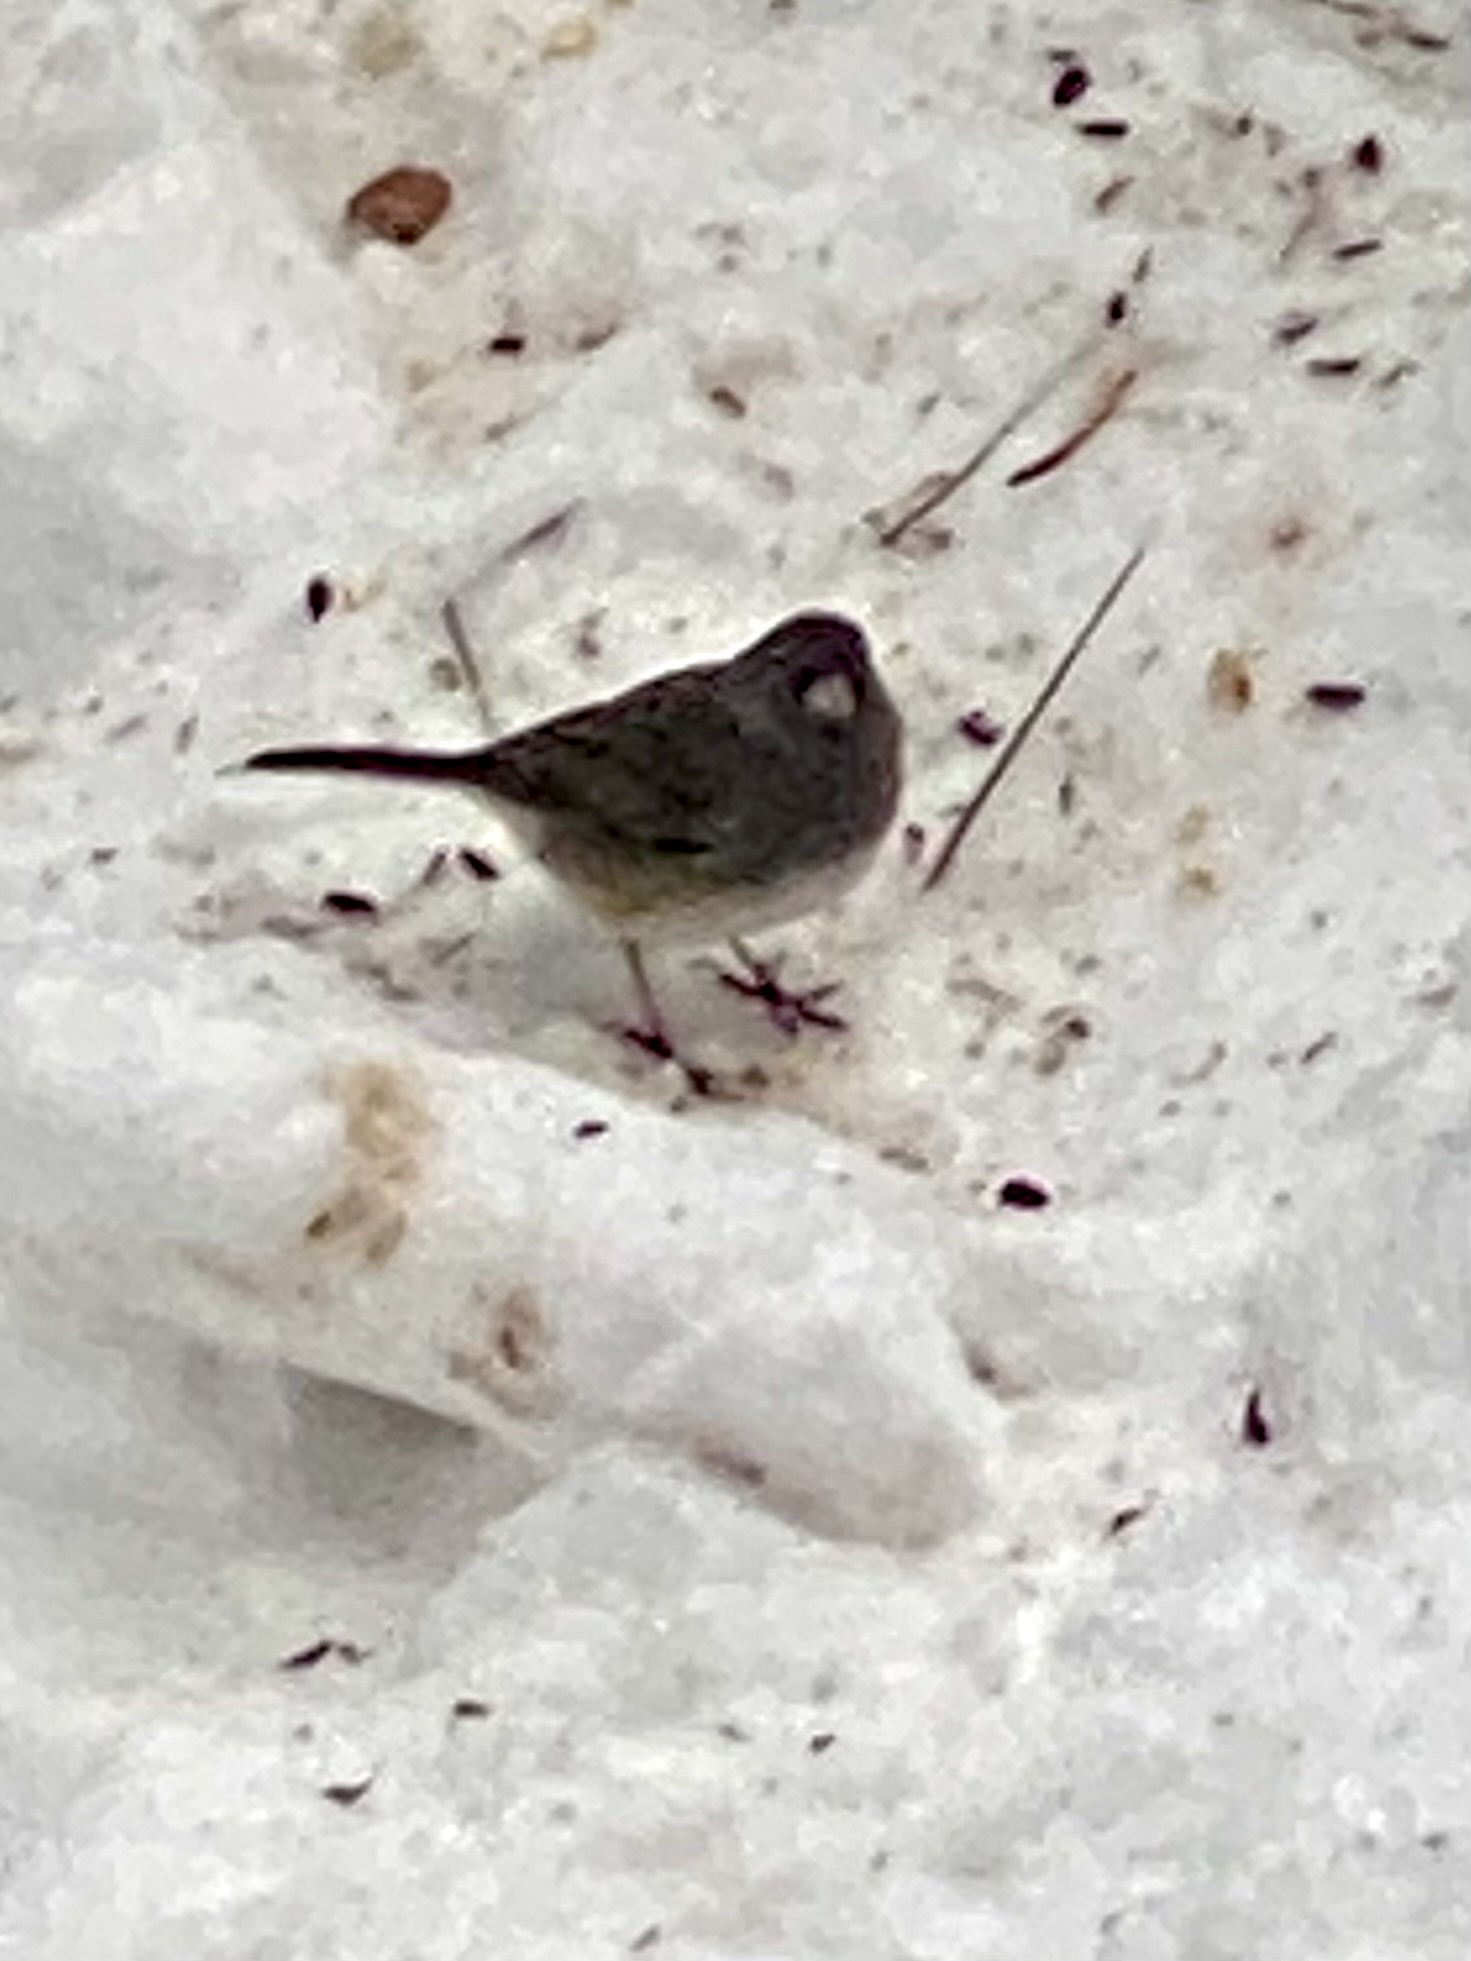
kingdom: Animalia
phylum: Chordata
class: Aves
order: Passeriformes
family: Passerellidae
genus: Junco
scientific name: Junco hyemalis
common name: Dark-eyed junco
